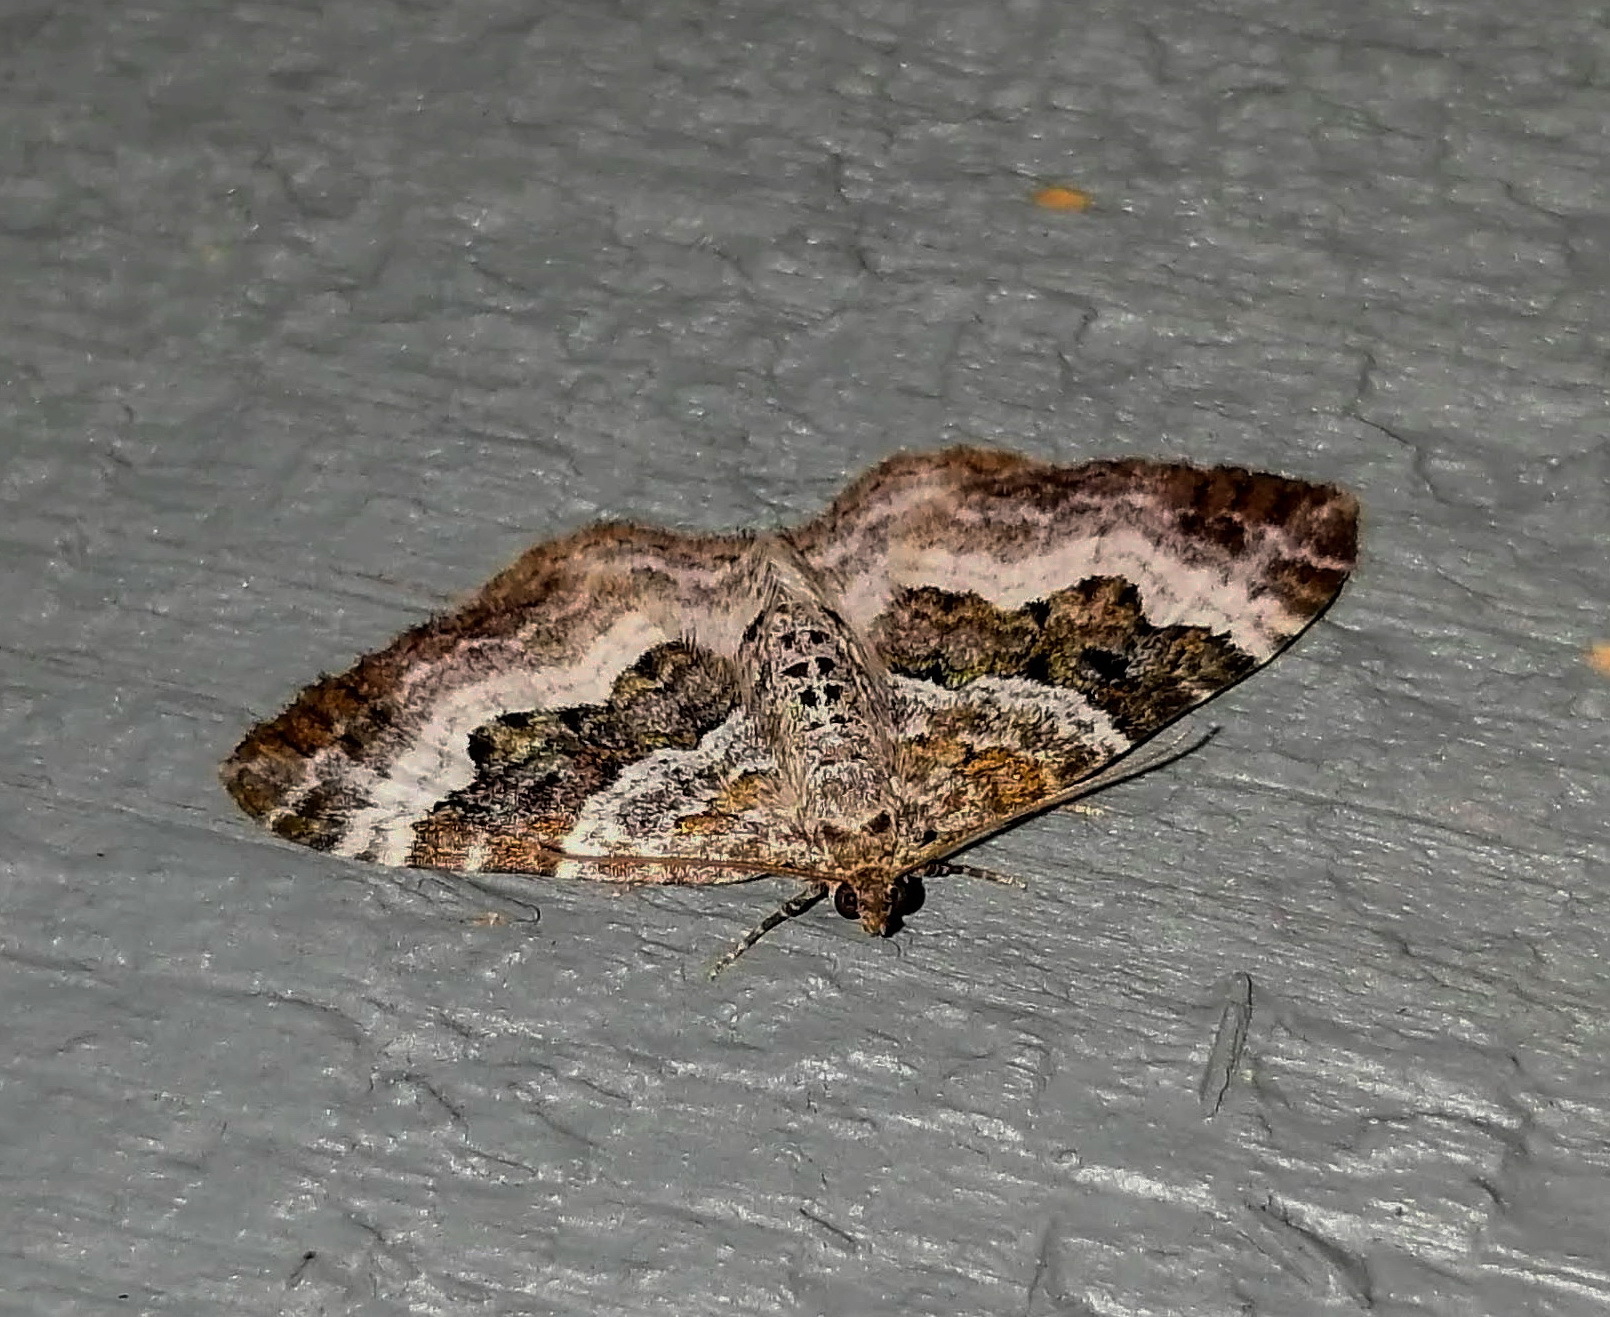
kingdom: Animalia
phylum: Arthropoda
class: Insecta
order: Lepidoptera
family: Geometridae
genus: Epirrhoe
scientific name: Epirrhoe alternata
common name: Common carpet
